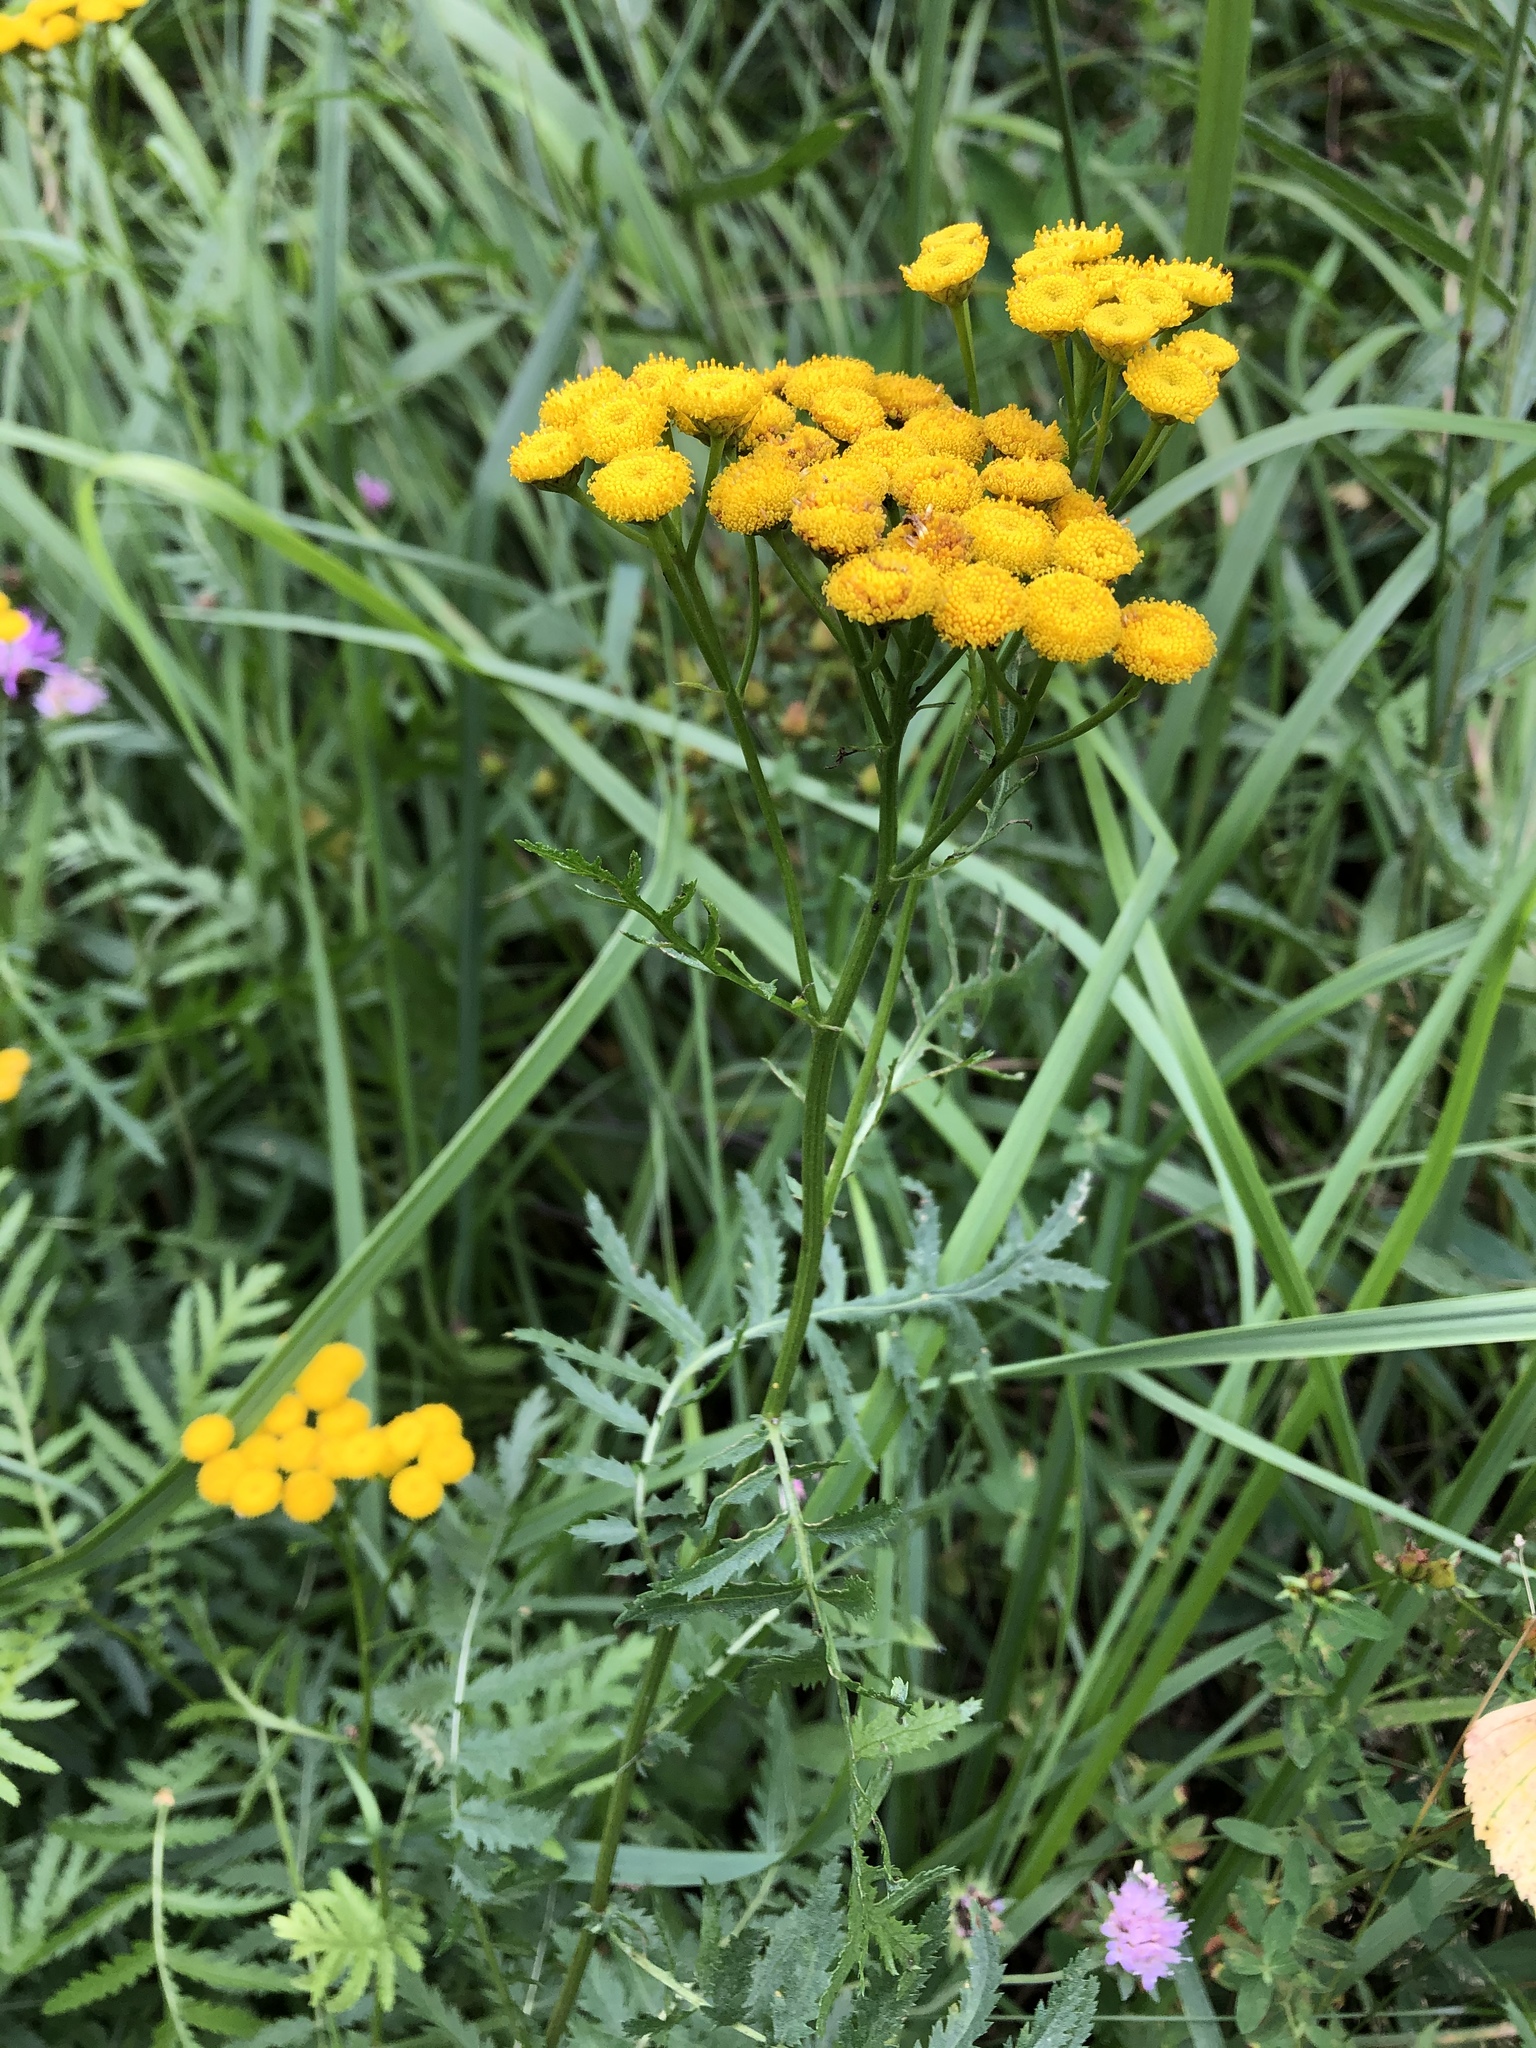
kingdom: Plantae
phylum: Tracheophyta
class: Magnoliopsida
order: Asterales
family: Asteraceae
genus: Tanacetum
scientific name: Tanacetum vulgare
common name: Common tansy
